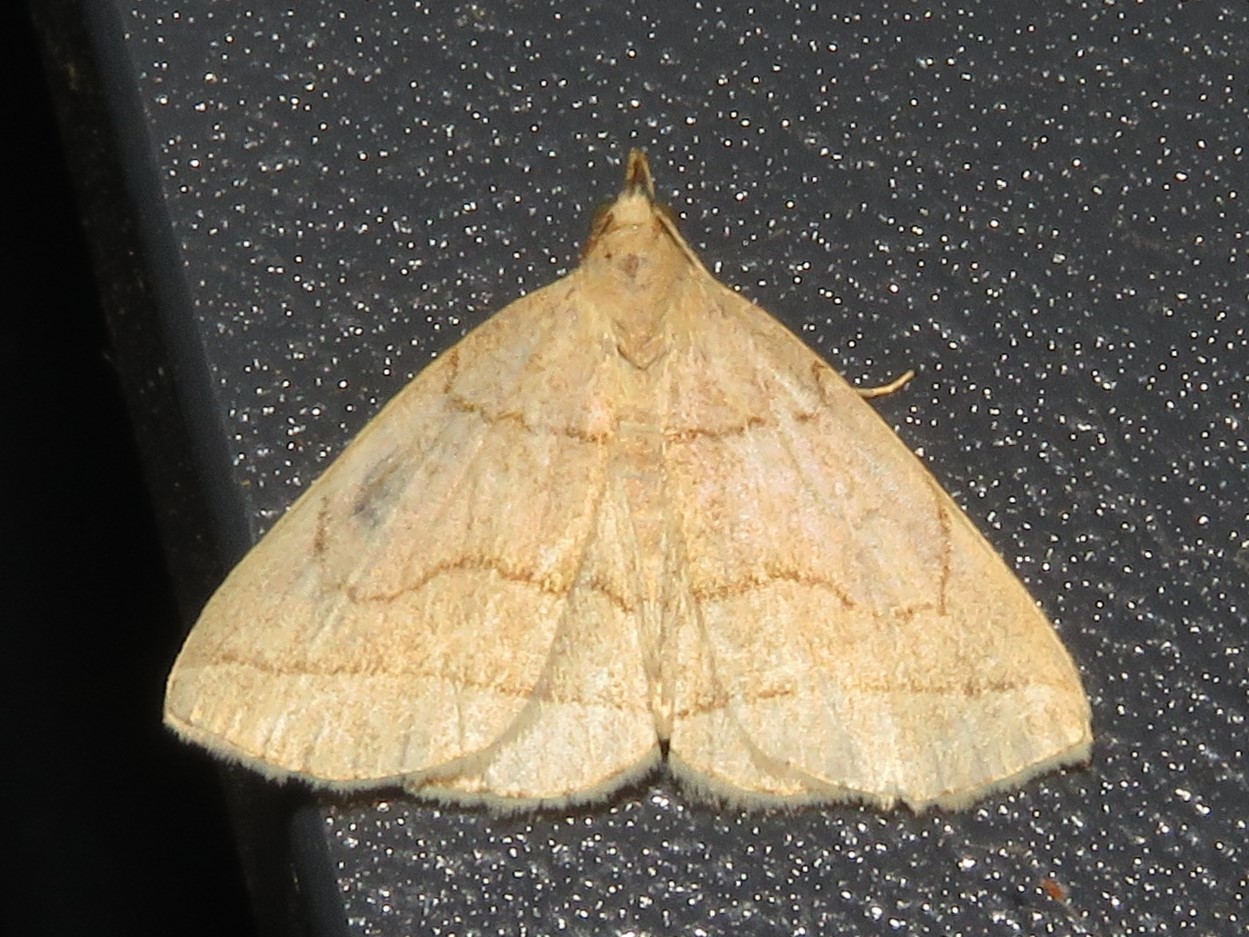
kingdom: Animalia
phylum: Arthropoda
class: Insecta
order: Lepidoptera
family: Erebidae
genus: Zanclognatha
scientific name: Zanclognatha cruralis
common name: Early fan-foot
